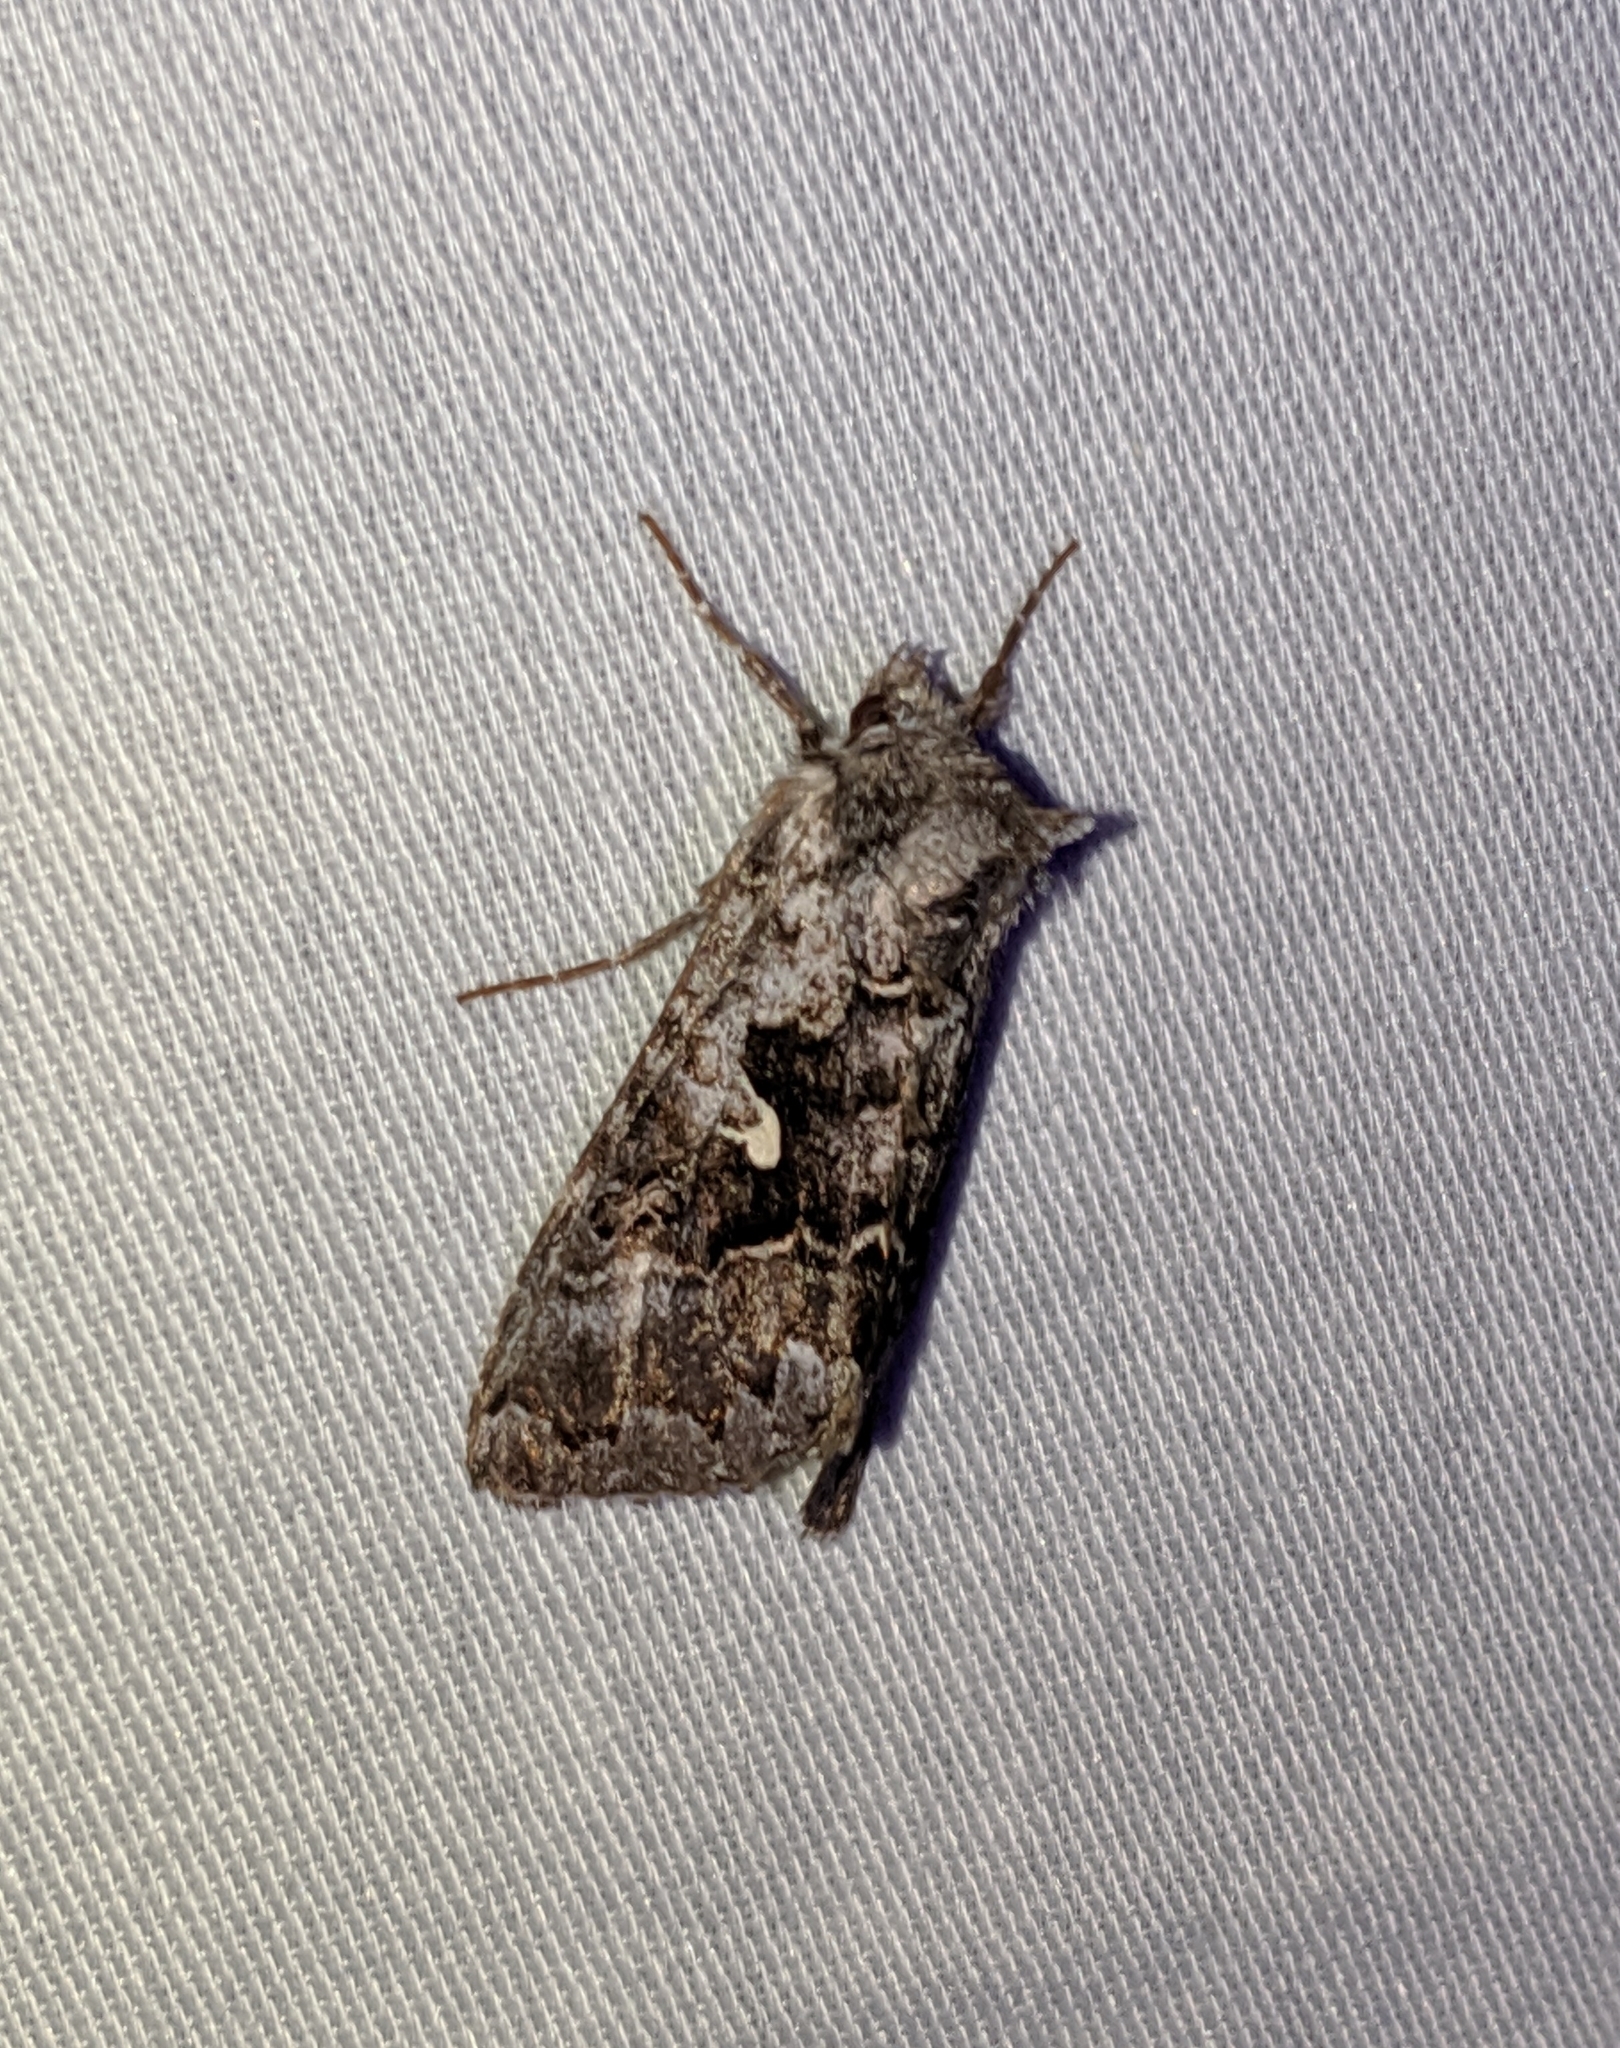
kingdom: Animalia
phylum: Arthropoda
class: Insecta
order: Lepidoptera
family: Noctuidae
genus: Syngrapha
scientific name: Syngrapha celsa
